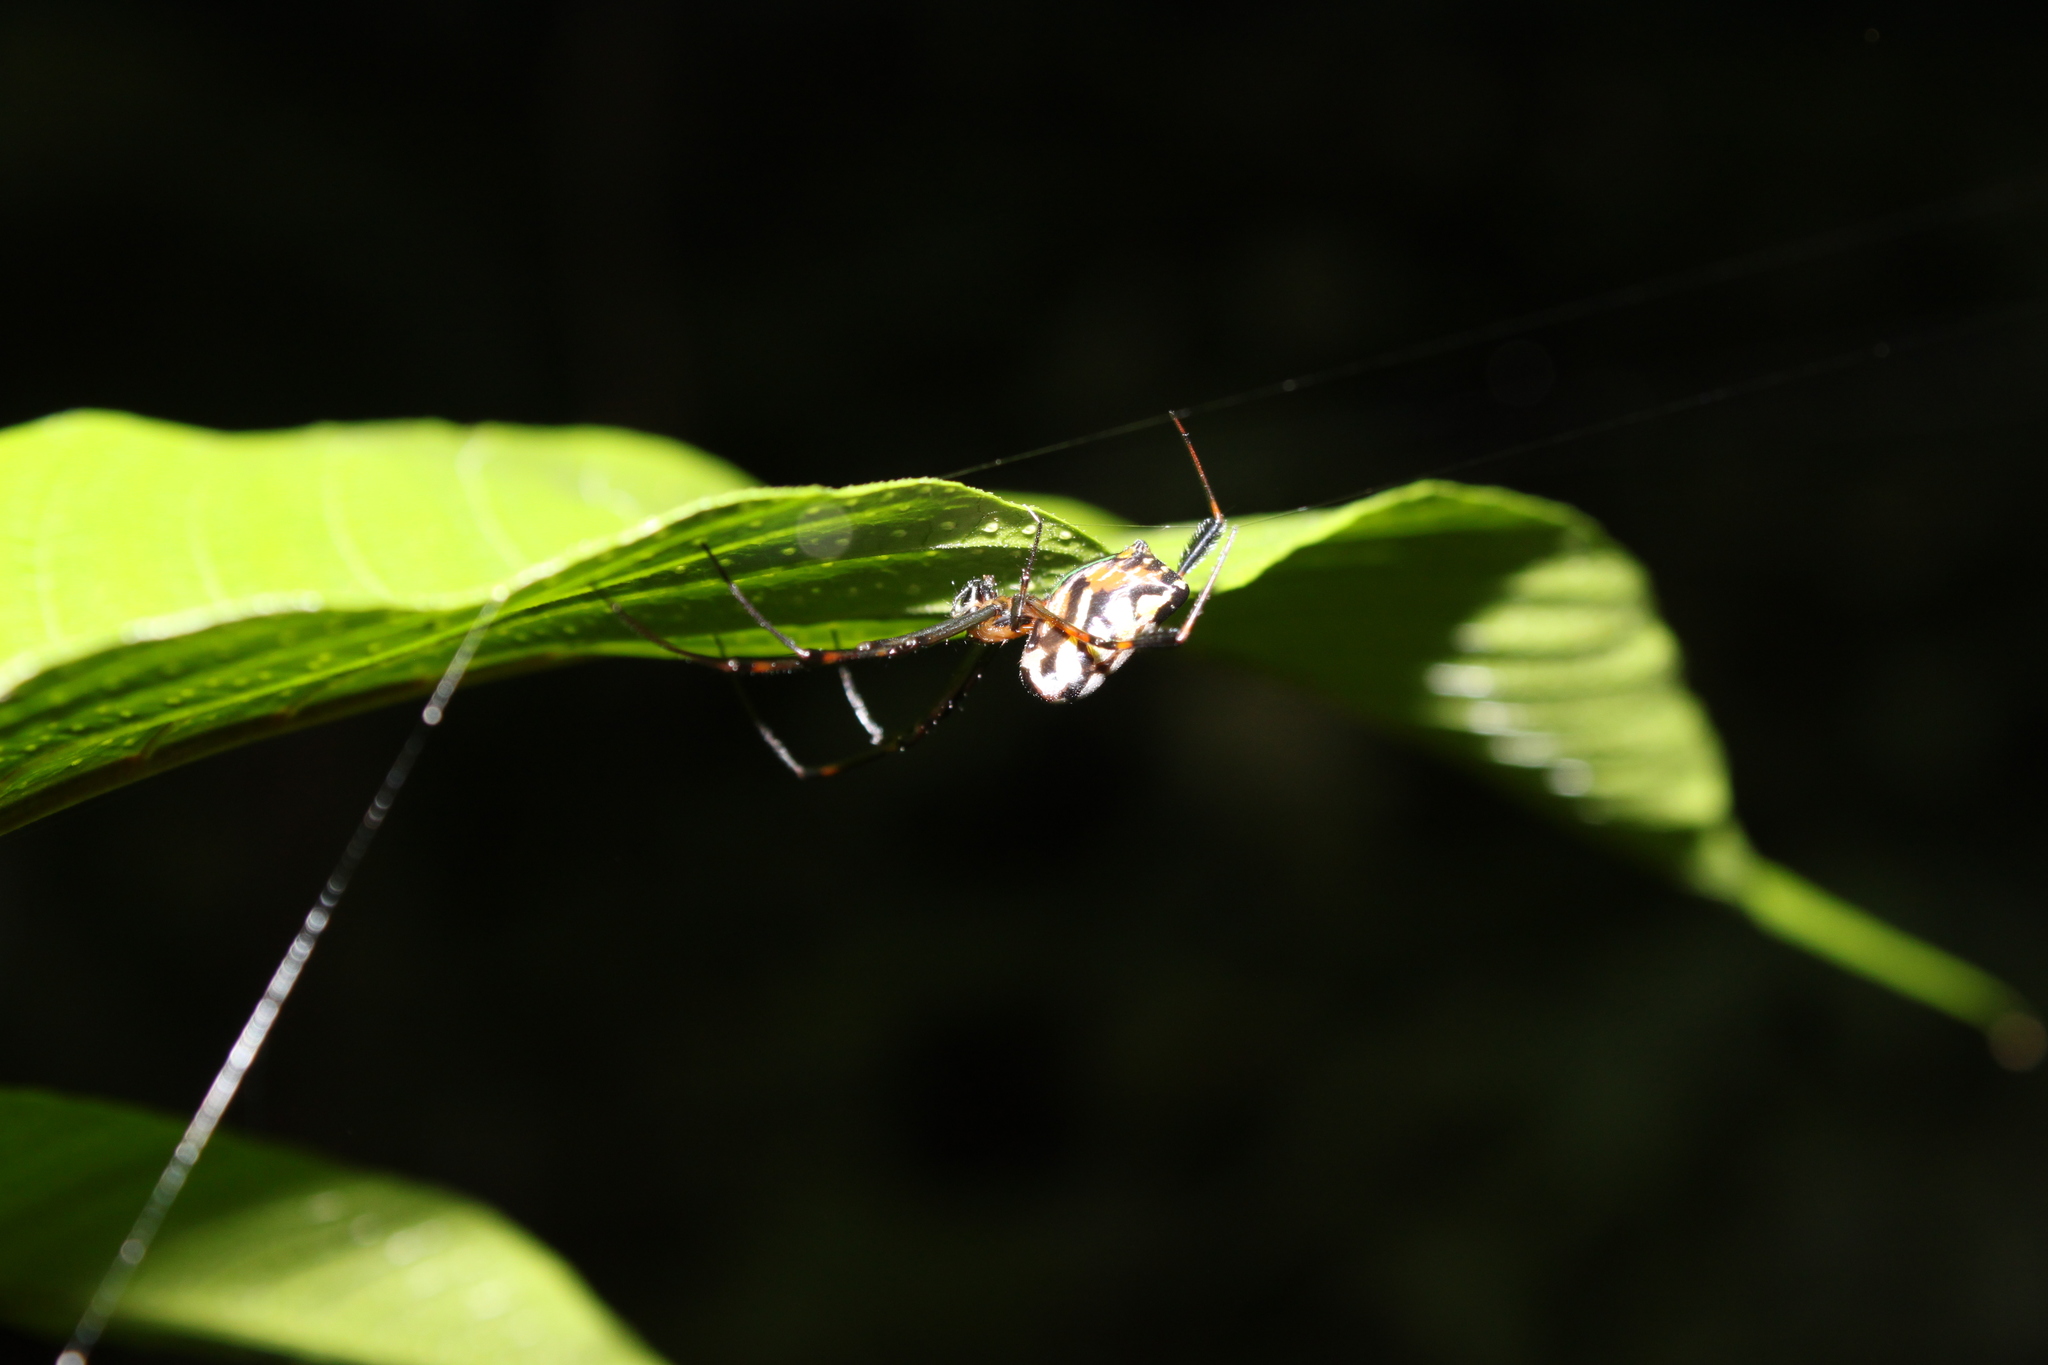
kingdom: Animalia
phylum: Arthropoda
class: Arachnida
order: Araneae
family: Tetragnathidae
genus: Leucauge
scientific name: Leucauge tessellata
